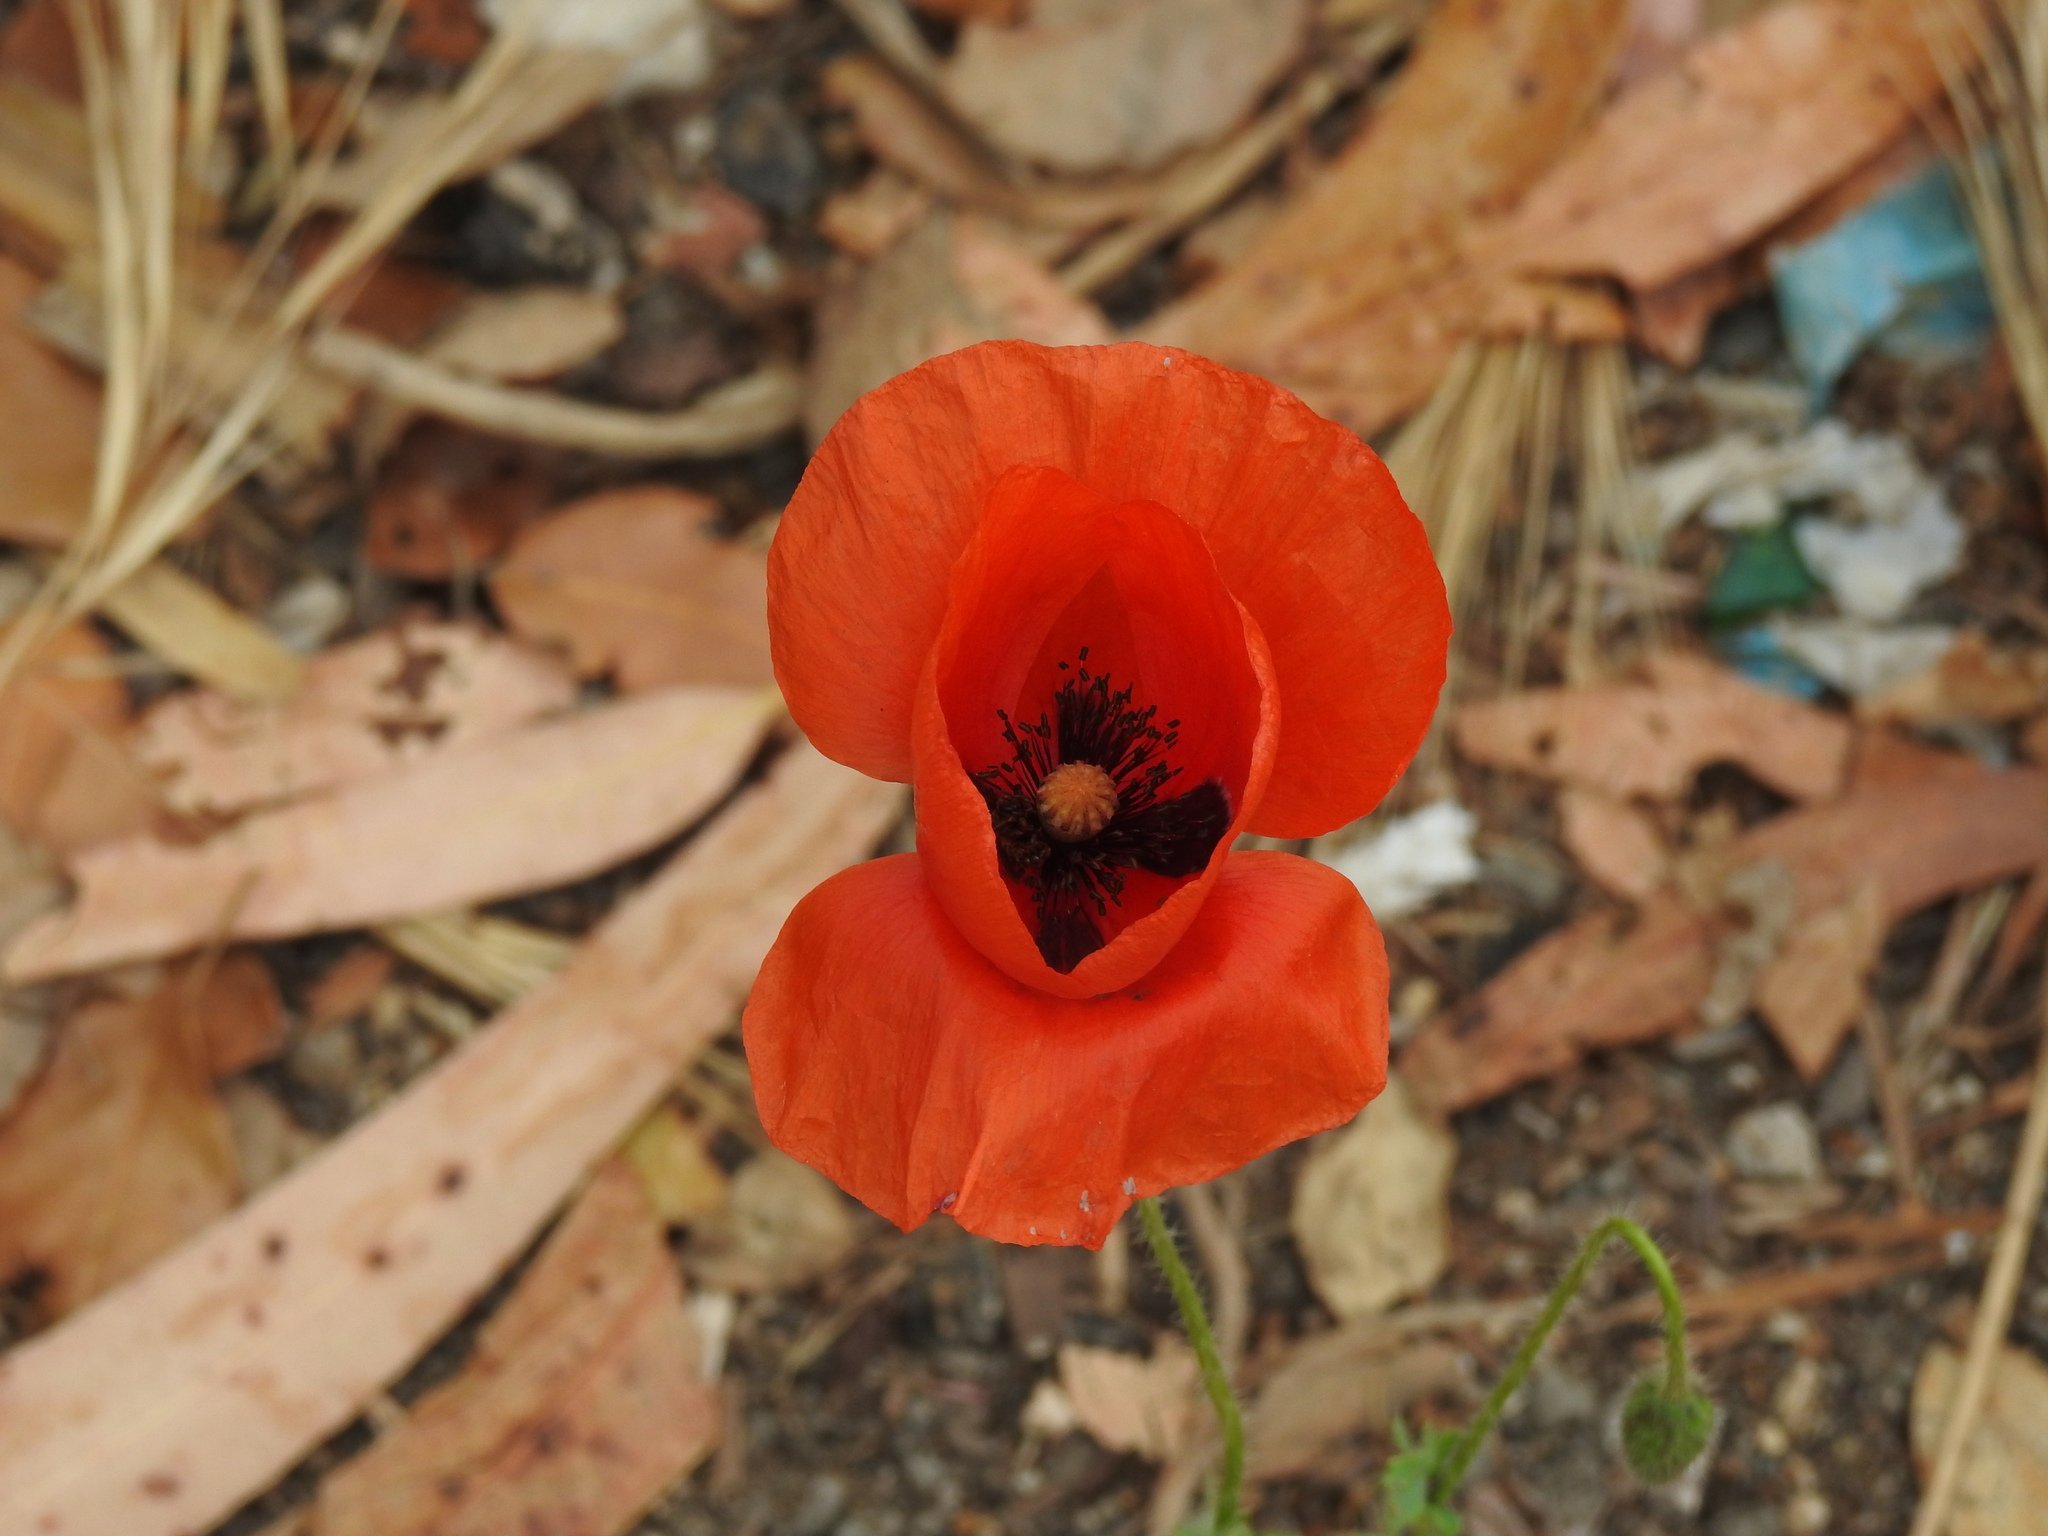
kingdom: Plantae
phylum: Tracheophyta
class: Magnoliopsida
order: Ranunculales
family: Papaveraceae
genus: Papaver
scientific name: Papaver rhoeas
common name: Corn poppy
